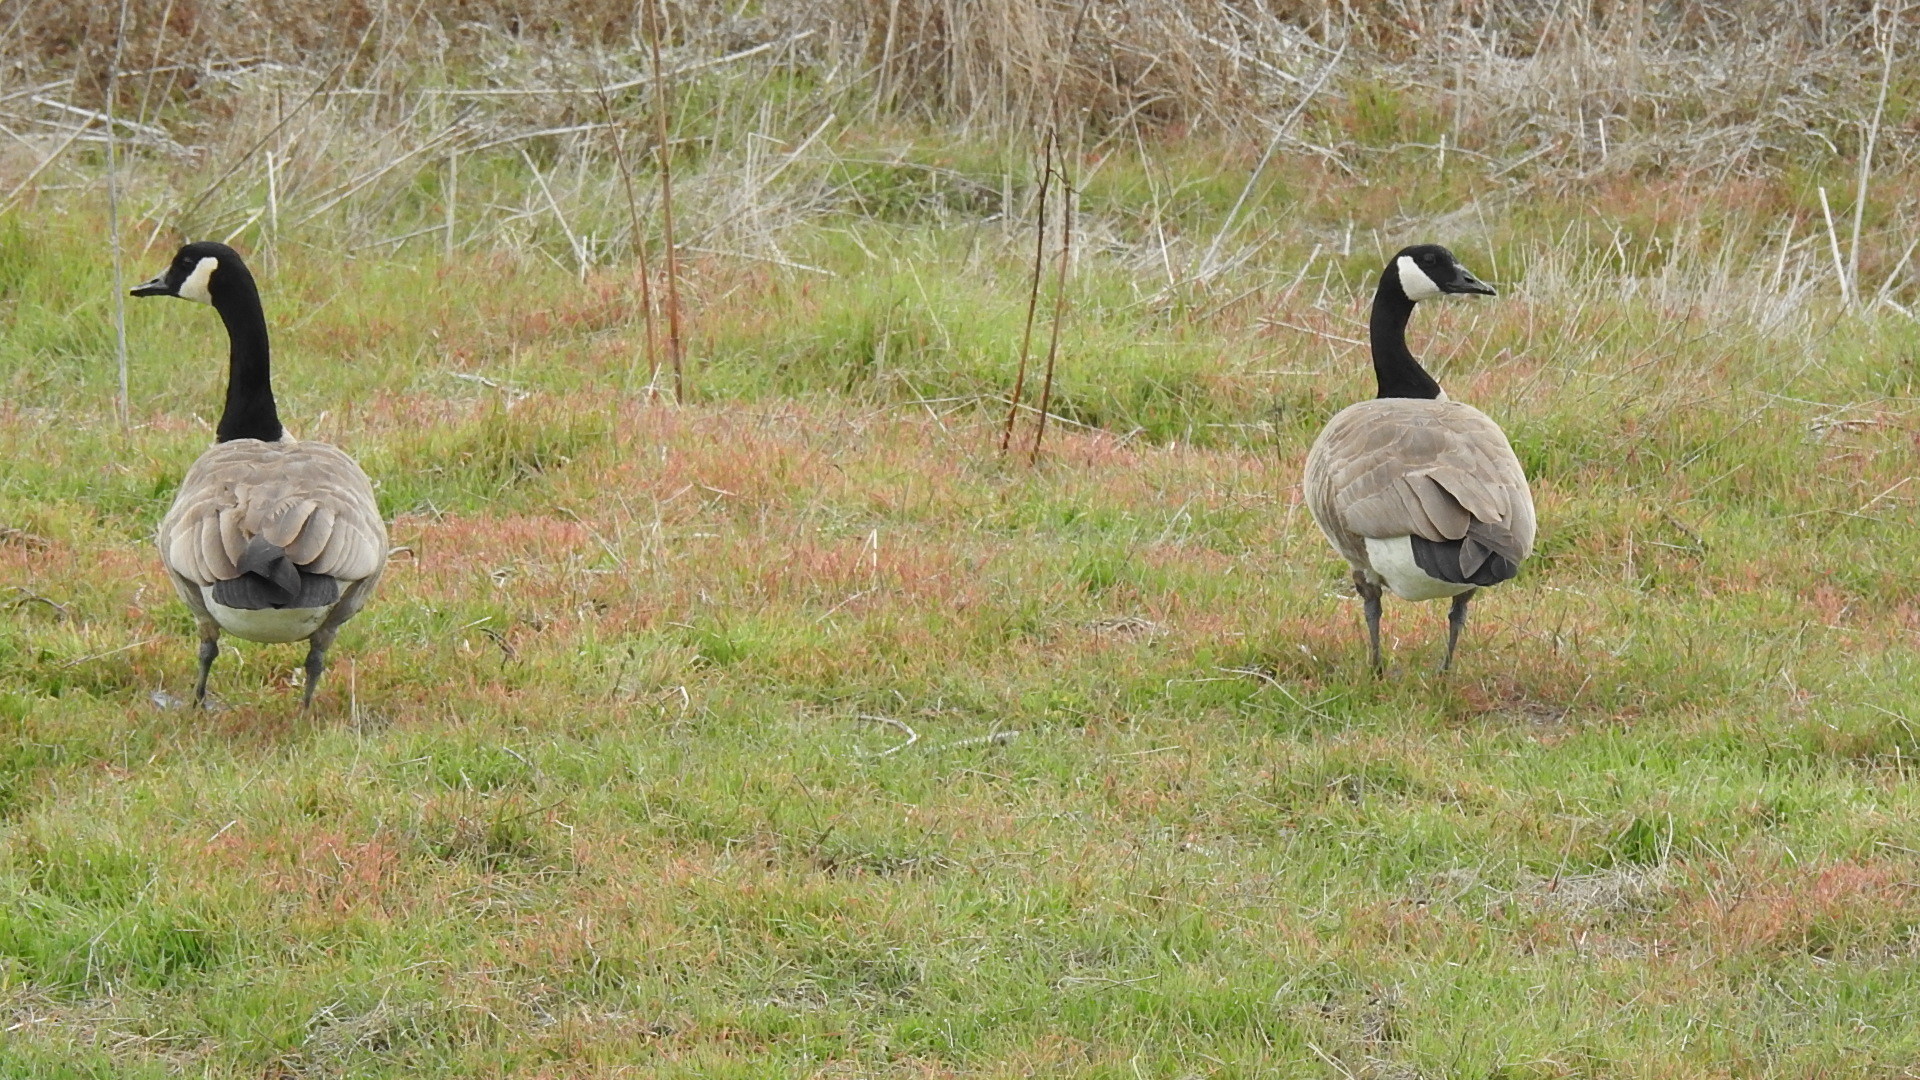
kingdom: Animalia
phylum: Chordata
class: Aves
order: Anseriformes
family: Anatidae
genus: Branta
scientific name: Branta canadensis
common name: Canada goose
